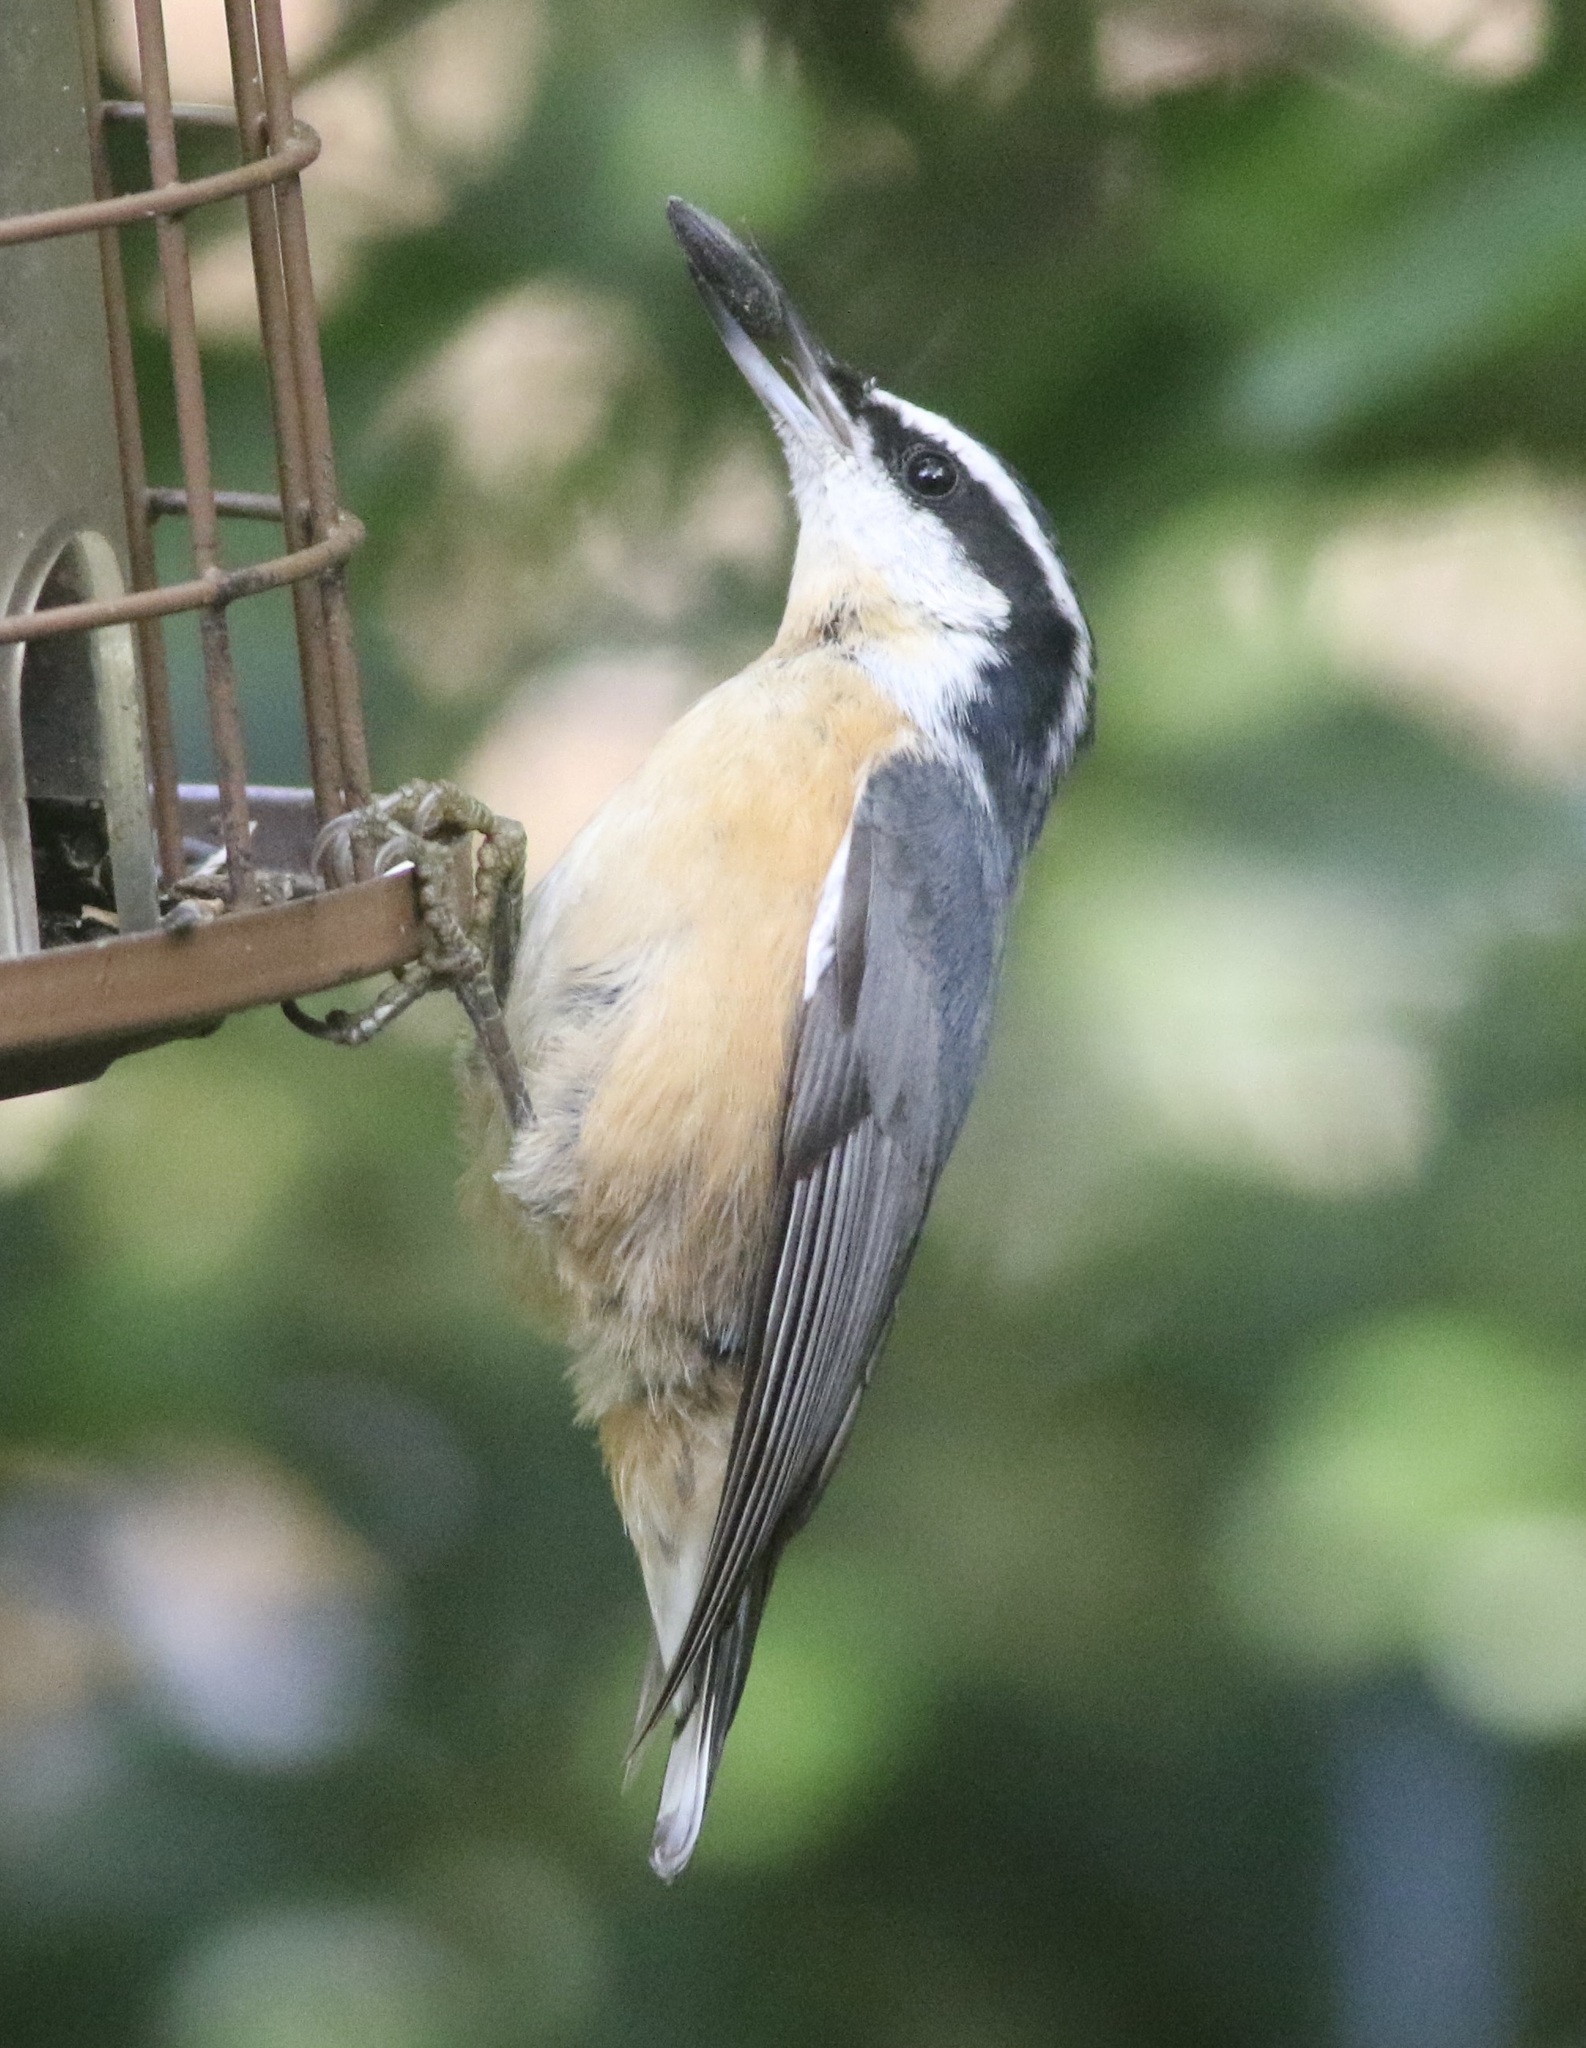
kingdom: Animalia
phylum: Chordata
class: Aves
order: Passeriformes
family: Sittidae
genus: Sitta
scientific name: Sitta canadensis
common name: Red-breasted nuthatch
